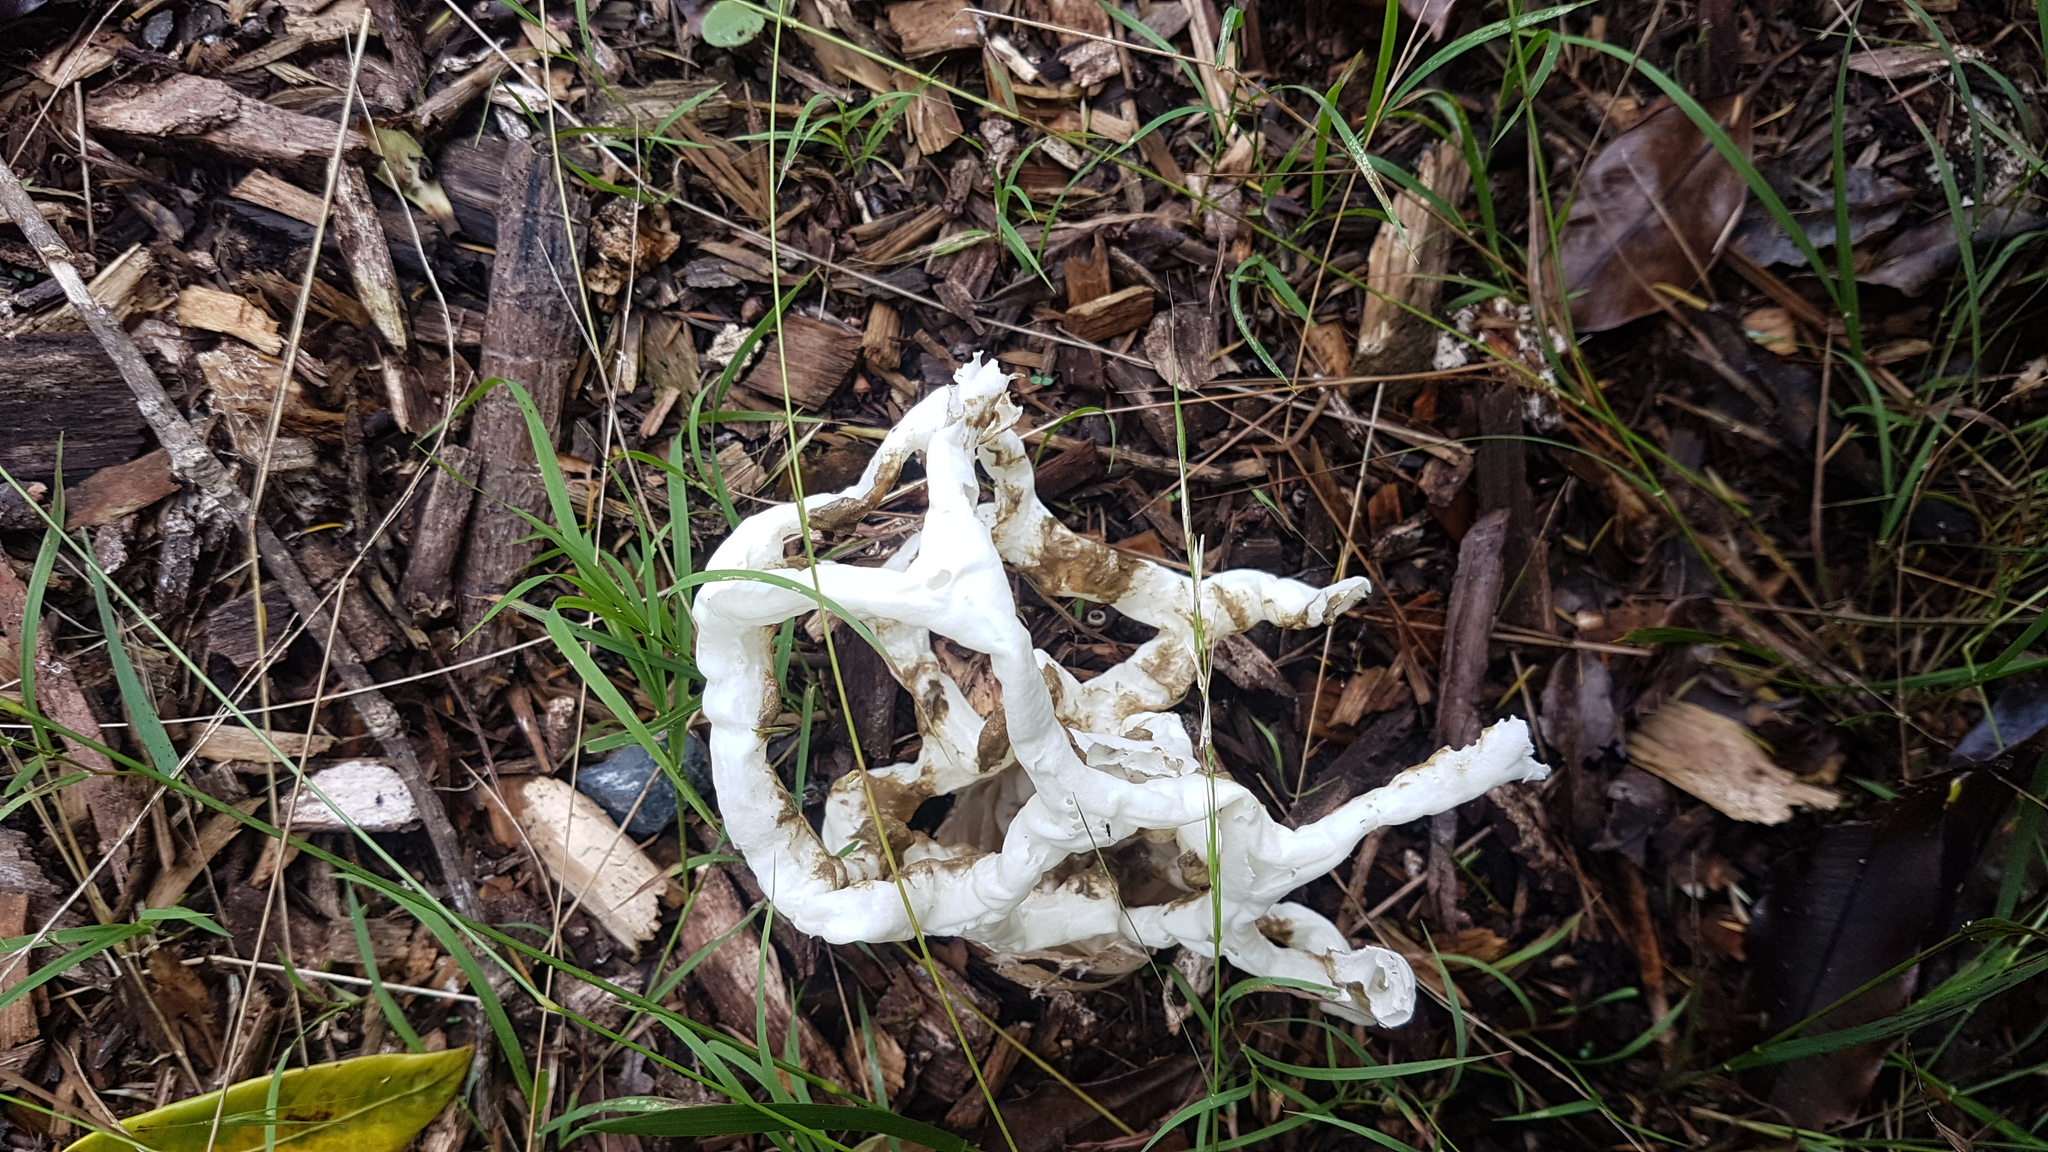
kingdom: Fungi
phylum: Basidiomycota
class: Agaricomycetes
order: Phallales
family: Phallaceae
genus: Ileodictyon
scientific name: Ileodictyon cibarium
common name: Basket fungus
